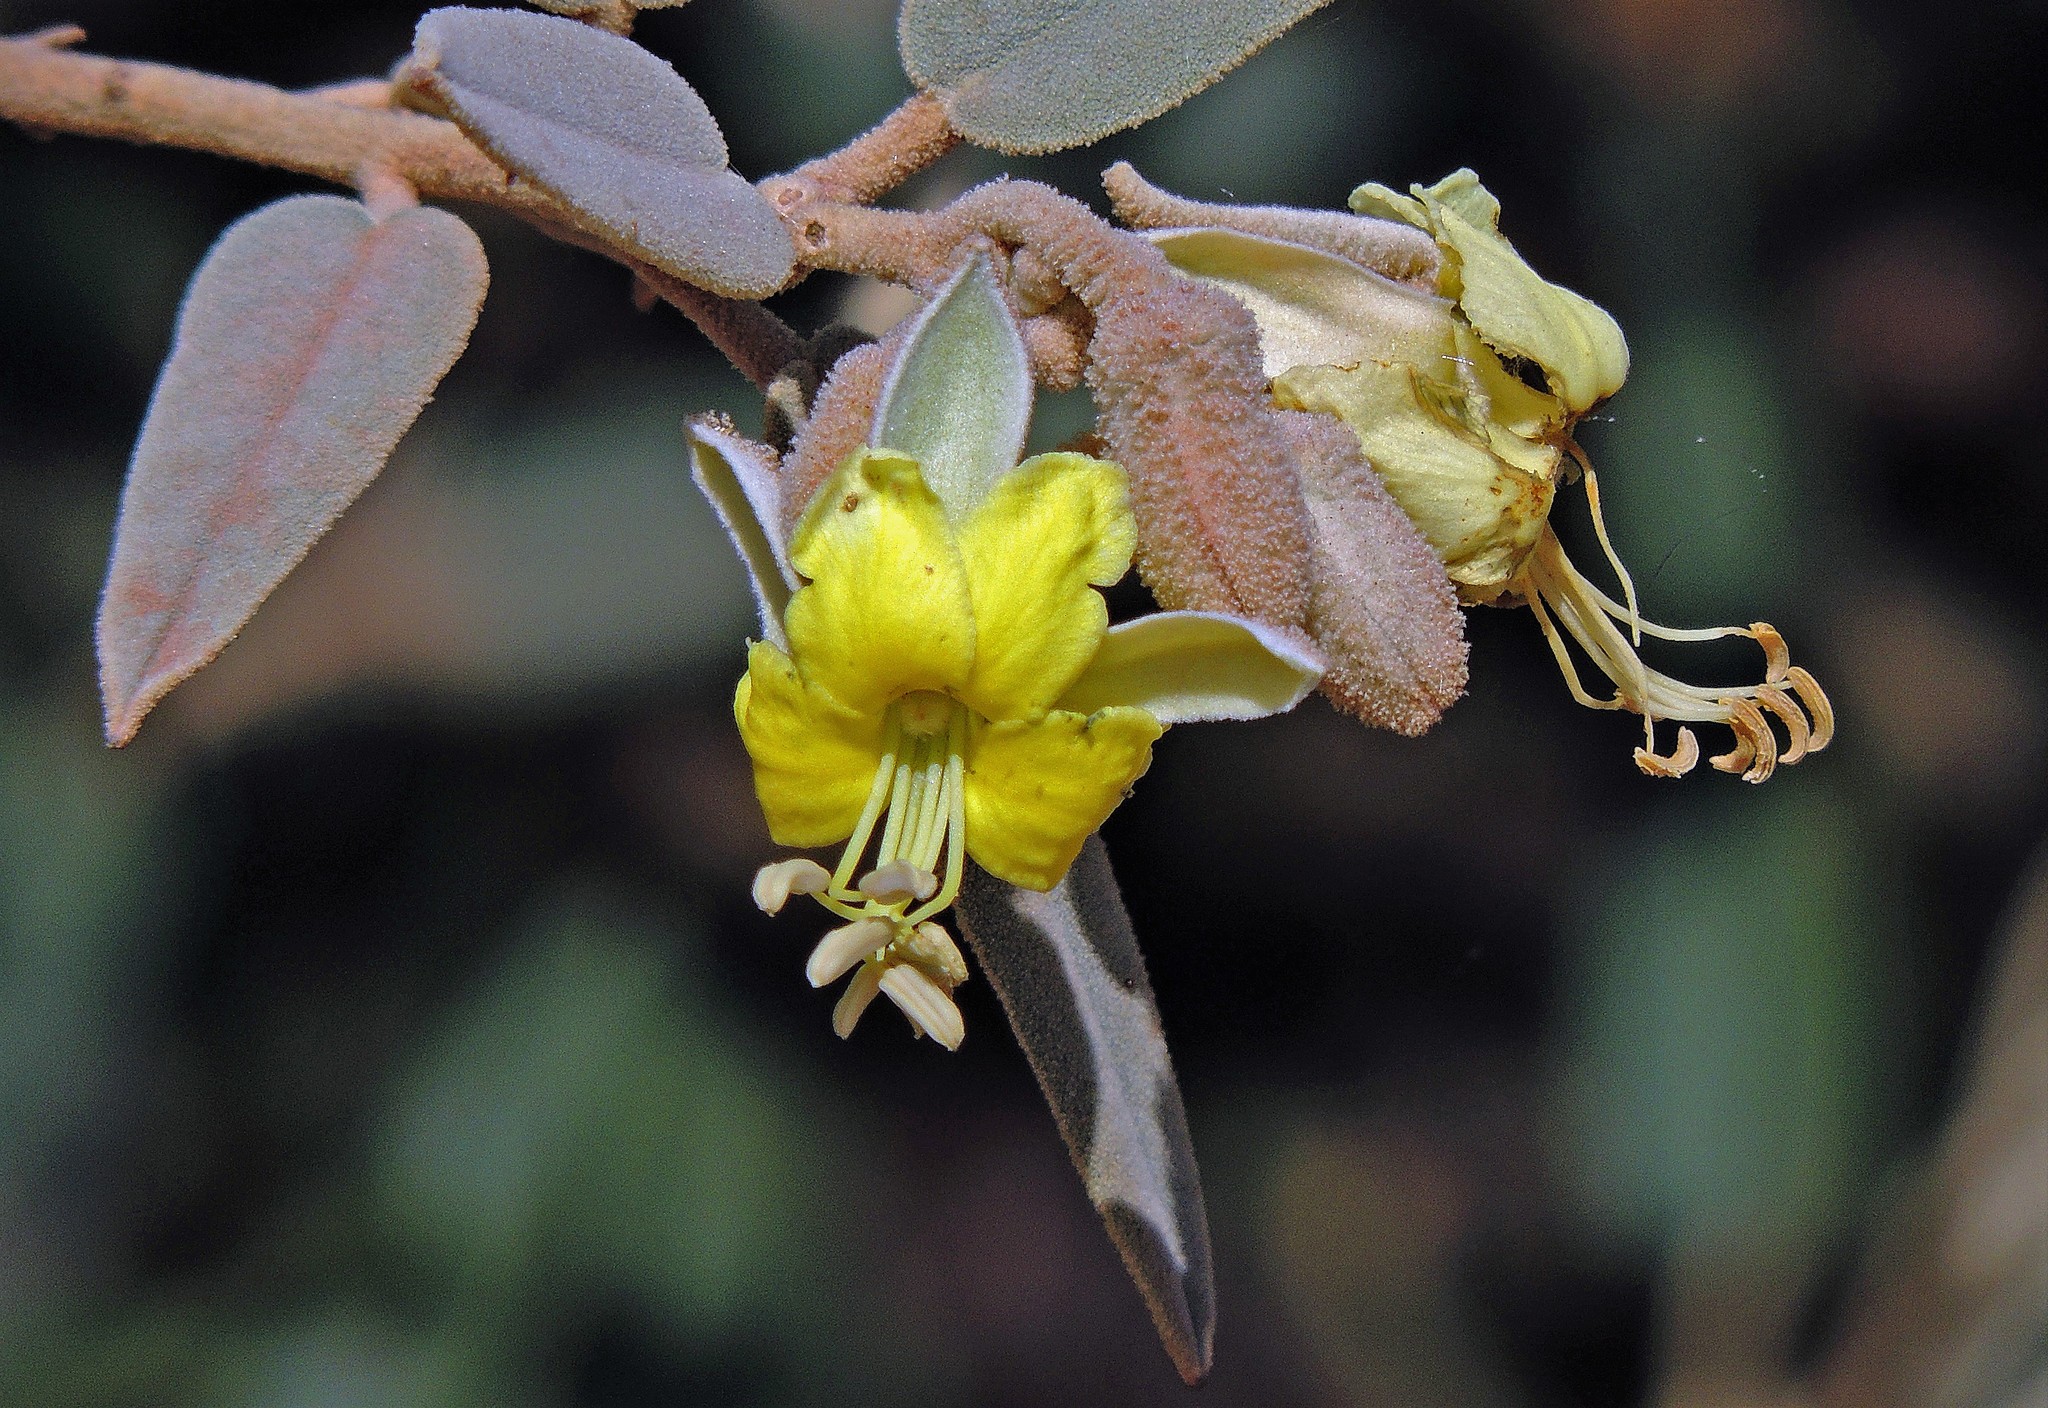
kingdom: Plantae
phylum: Tracheophyta
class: Magnoliopsida
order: Brassicales
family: Capparaceae
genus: Sarcotoxicum
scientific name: Sarcotoxicum salicifolium
